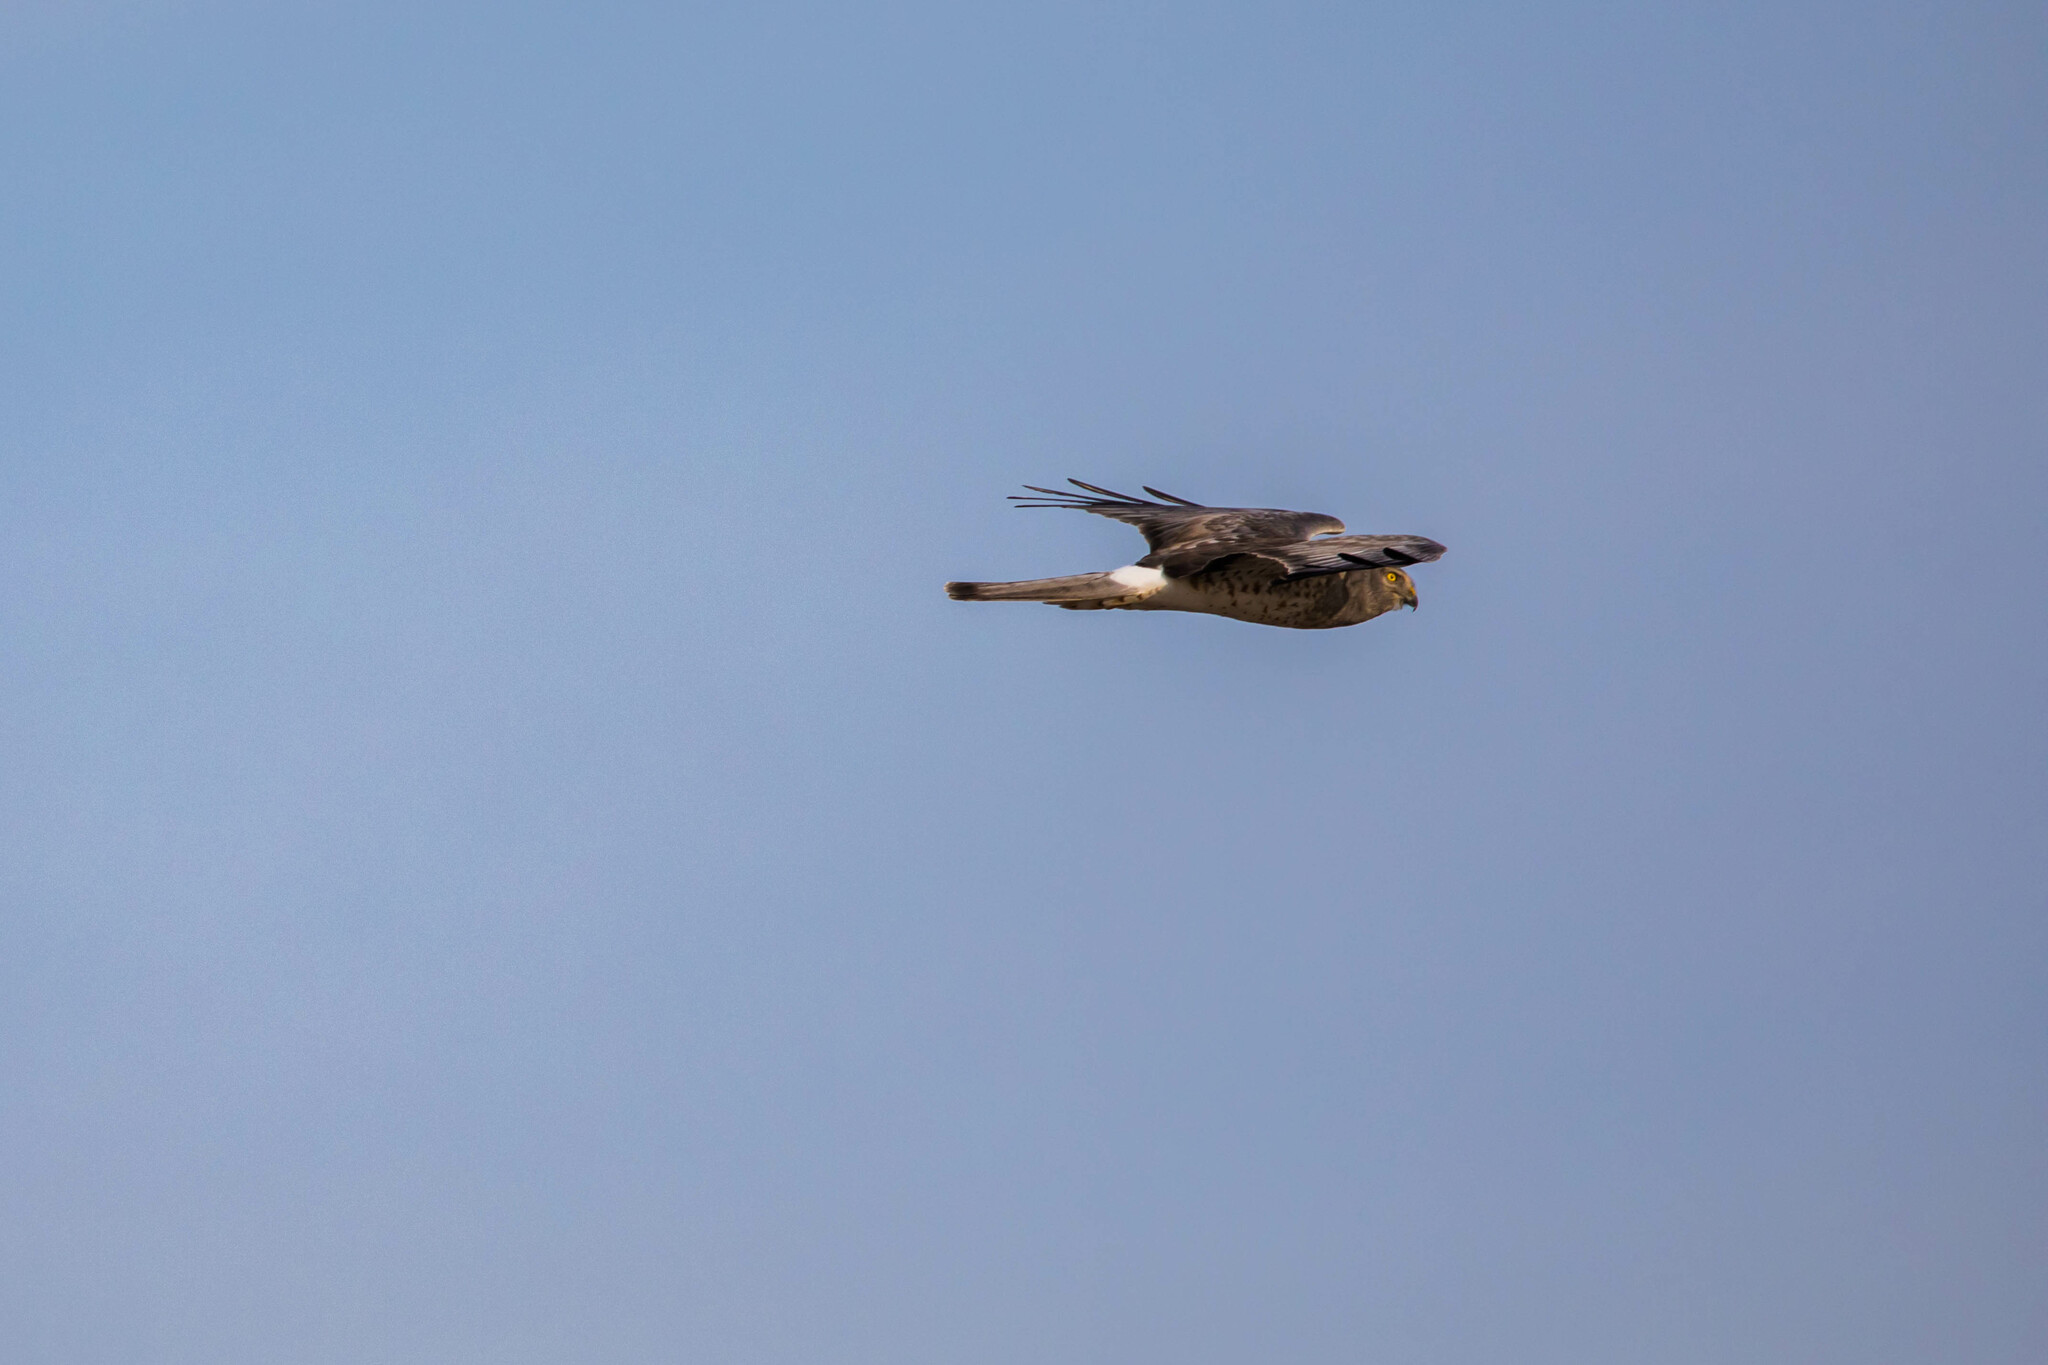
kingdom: Animalia
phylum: Chordata
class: Aves
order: Accipitriformes
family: Accipitridae
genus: Circus
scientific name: Circus cyaneus
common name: Hen harrier
